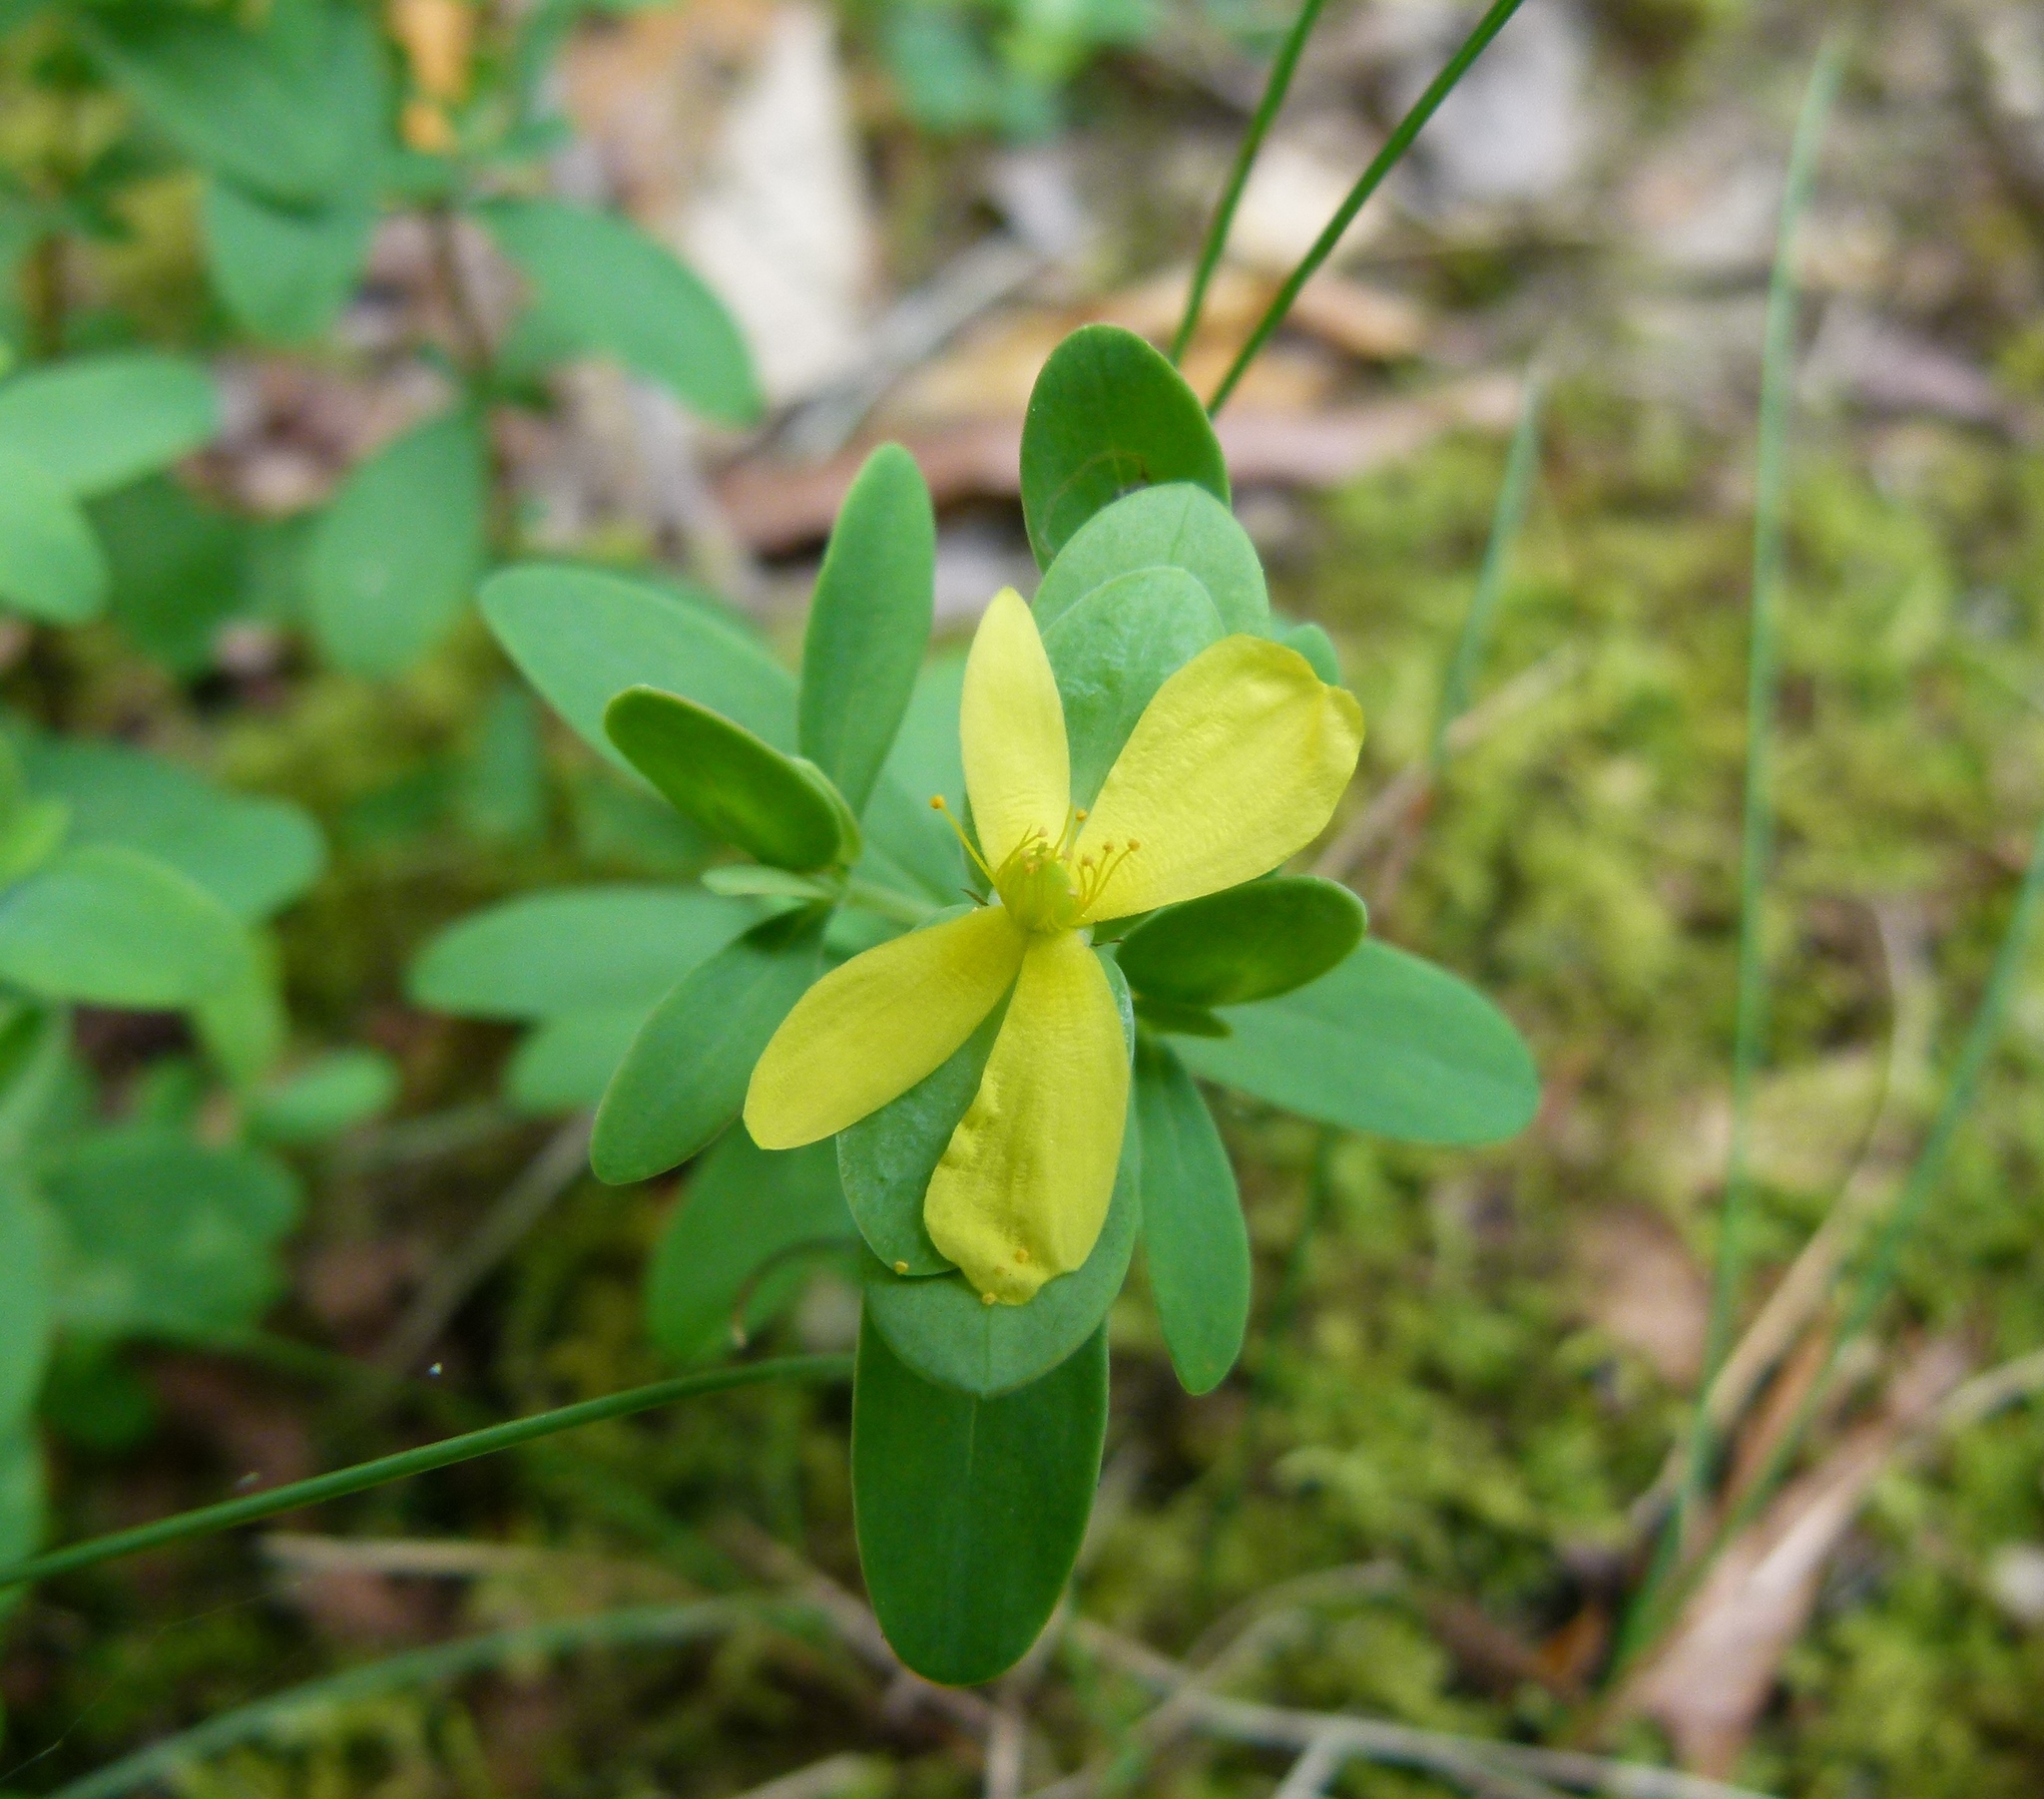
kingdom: Plantae
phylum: Tracheophyta
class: Magnoliopsida
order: Malpighiales
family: Hypericaceae
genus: Hypericum
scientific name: Hypericum hypericoides
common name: St. andrew's cross
